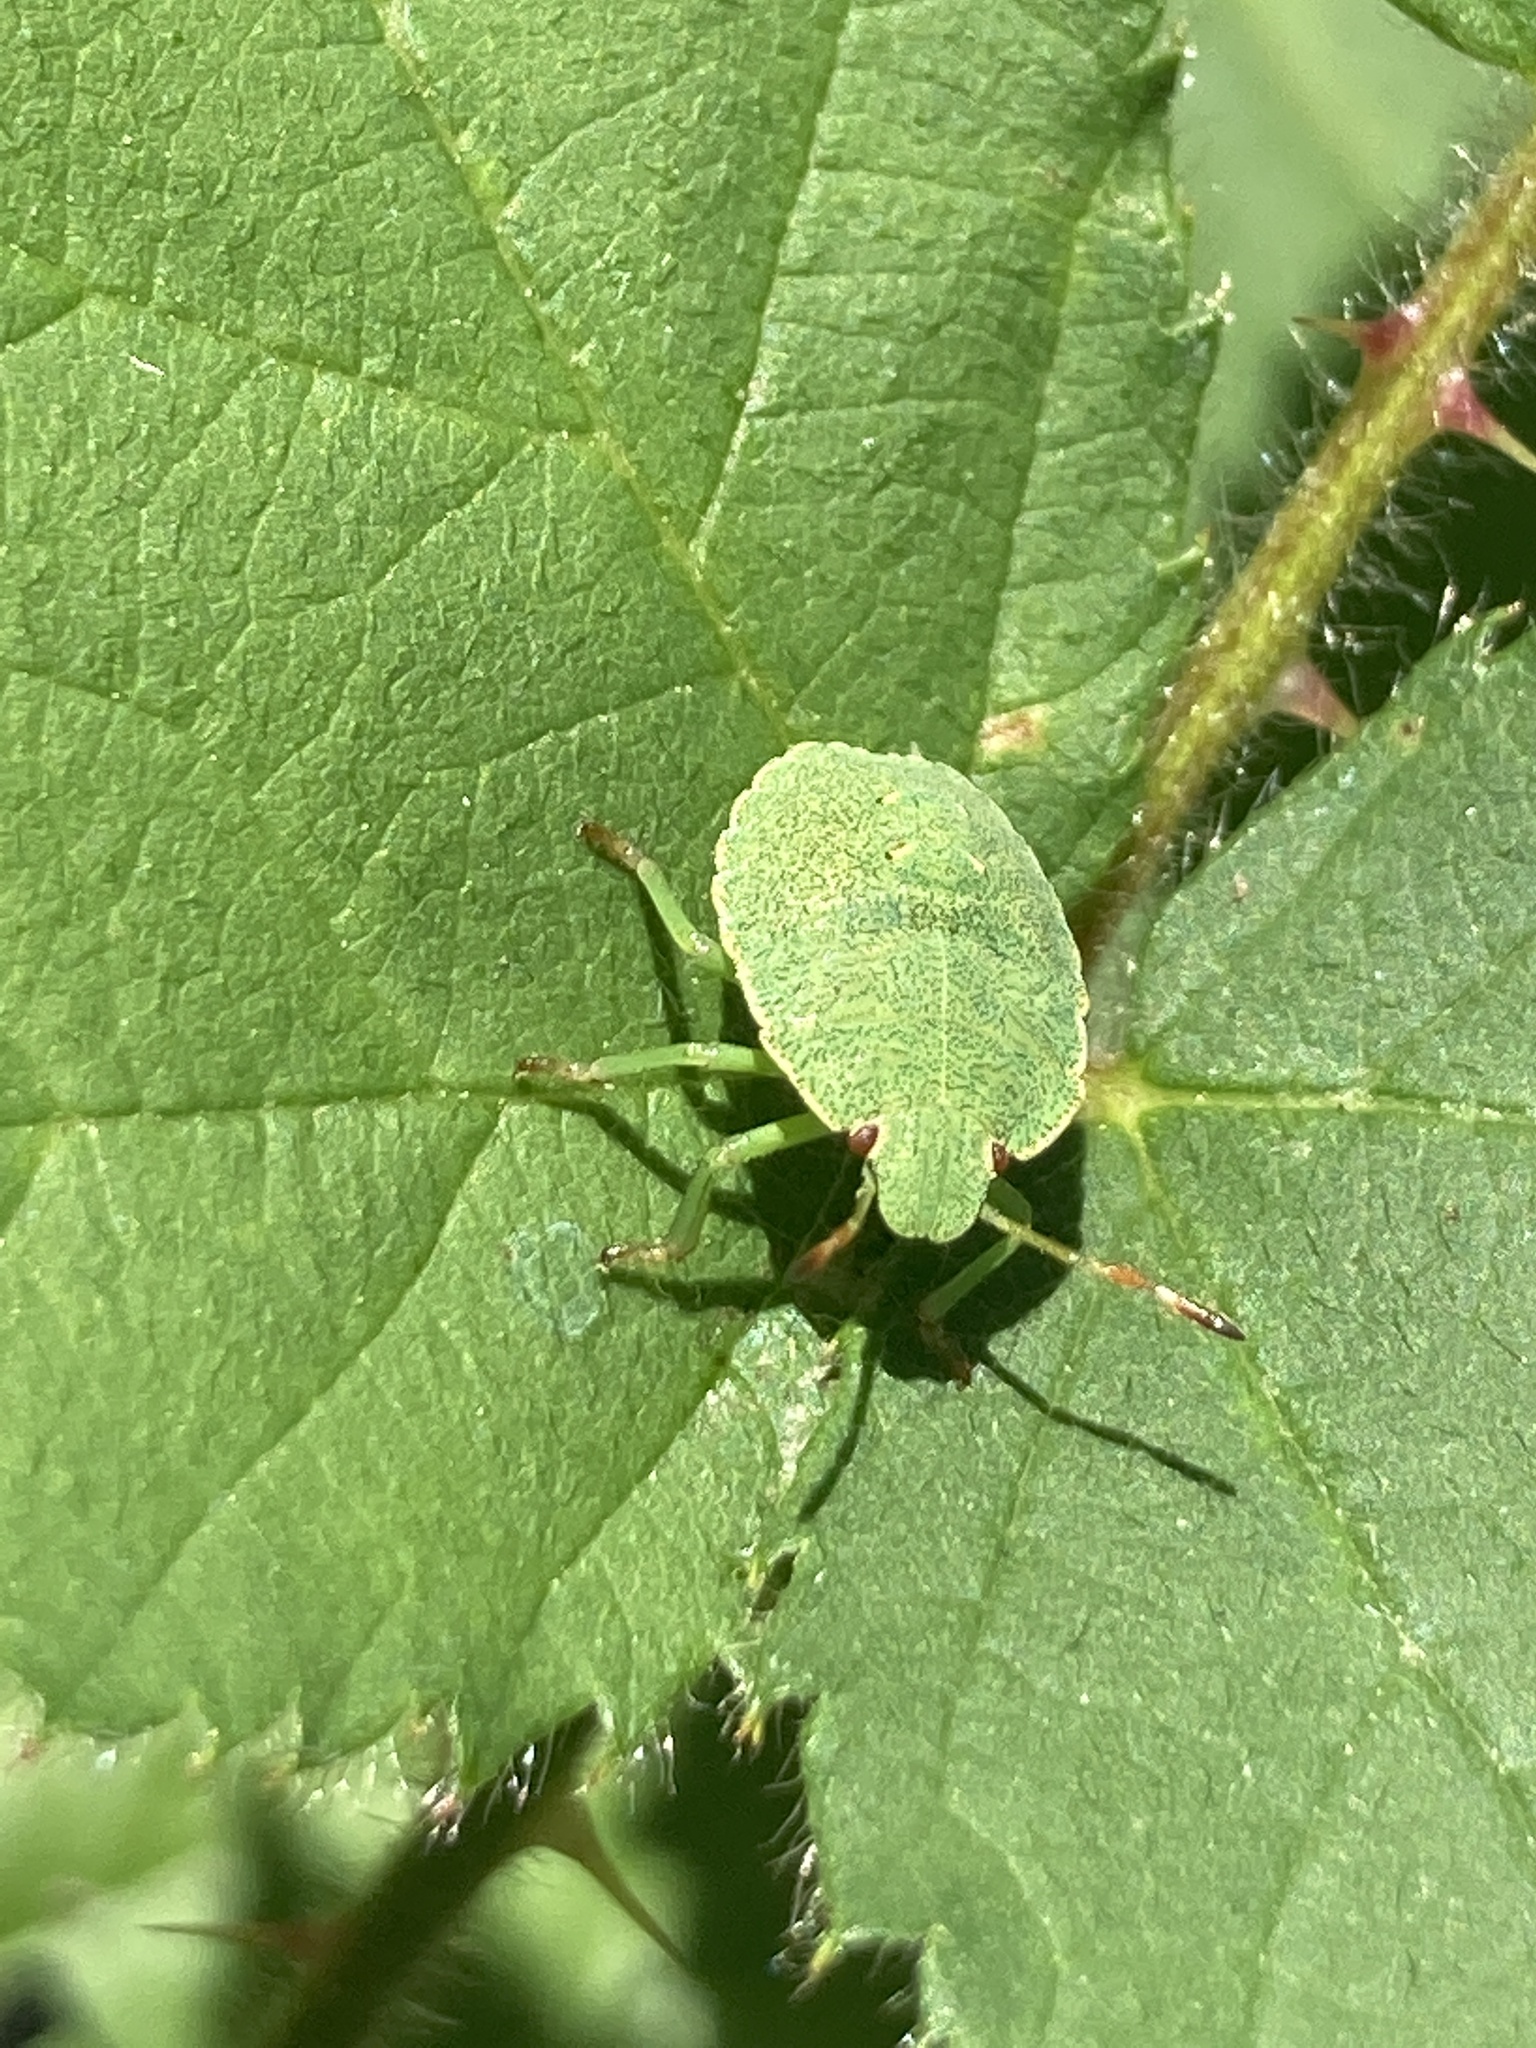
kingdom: Animalia
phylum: Arthropoda
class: Insecta
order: Hemiptera
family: Pentatomidae
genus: Palomena
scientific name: Palomena prasina
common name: Green shieldbug
